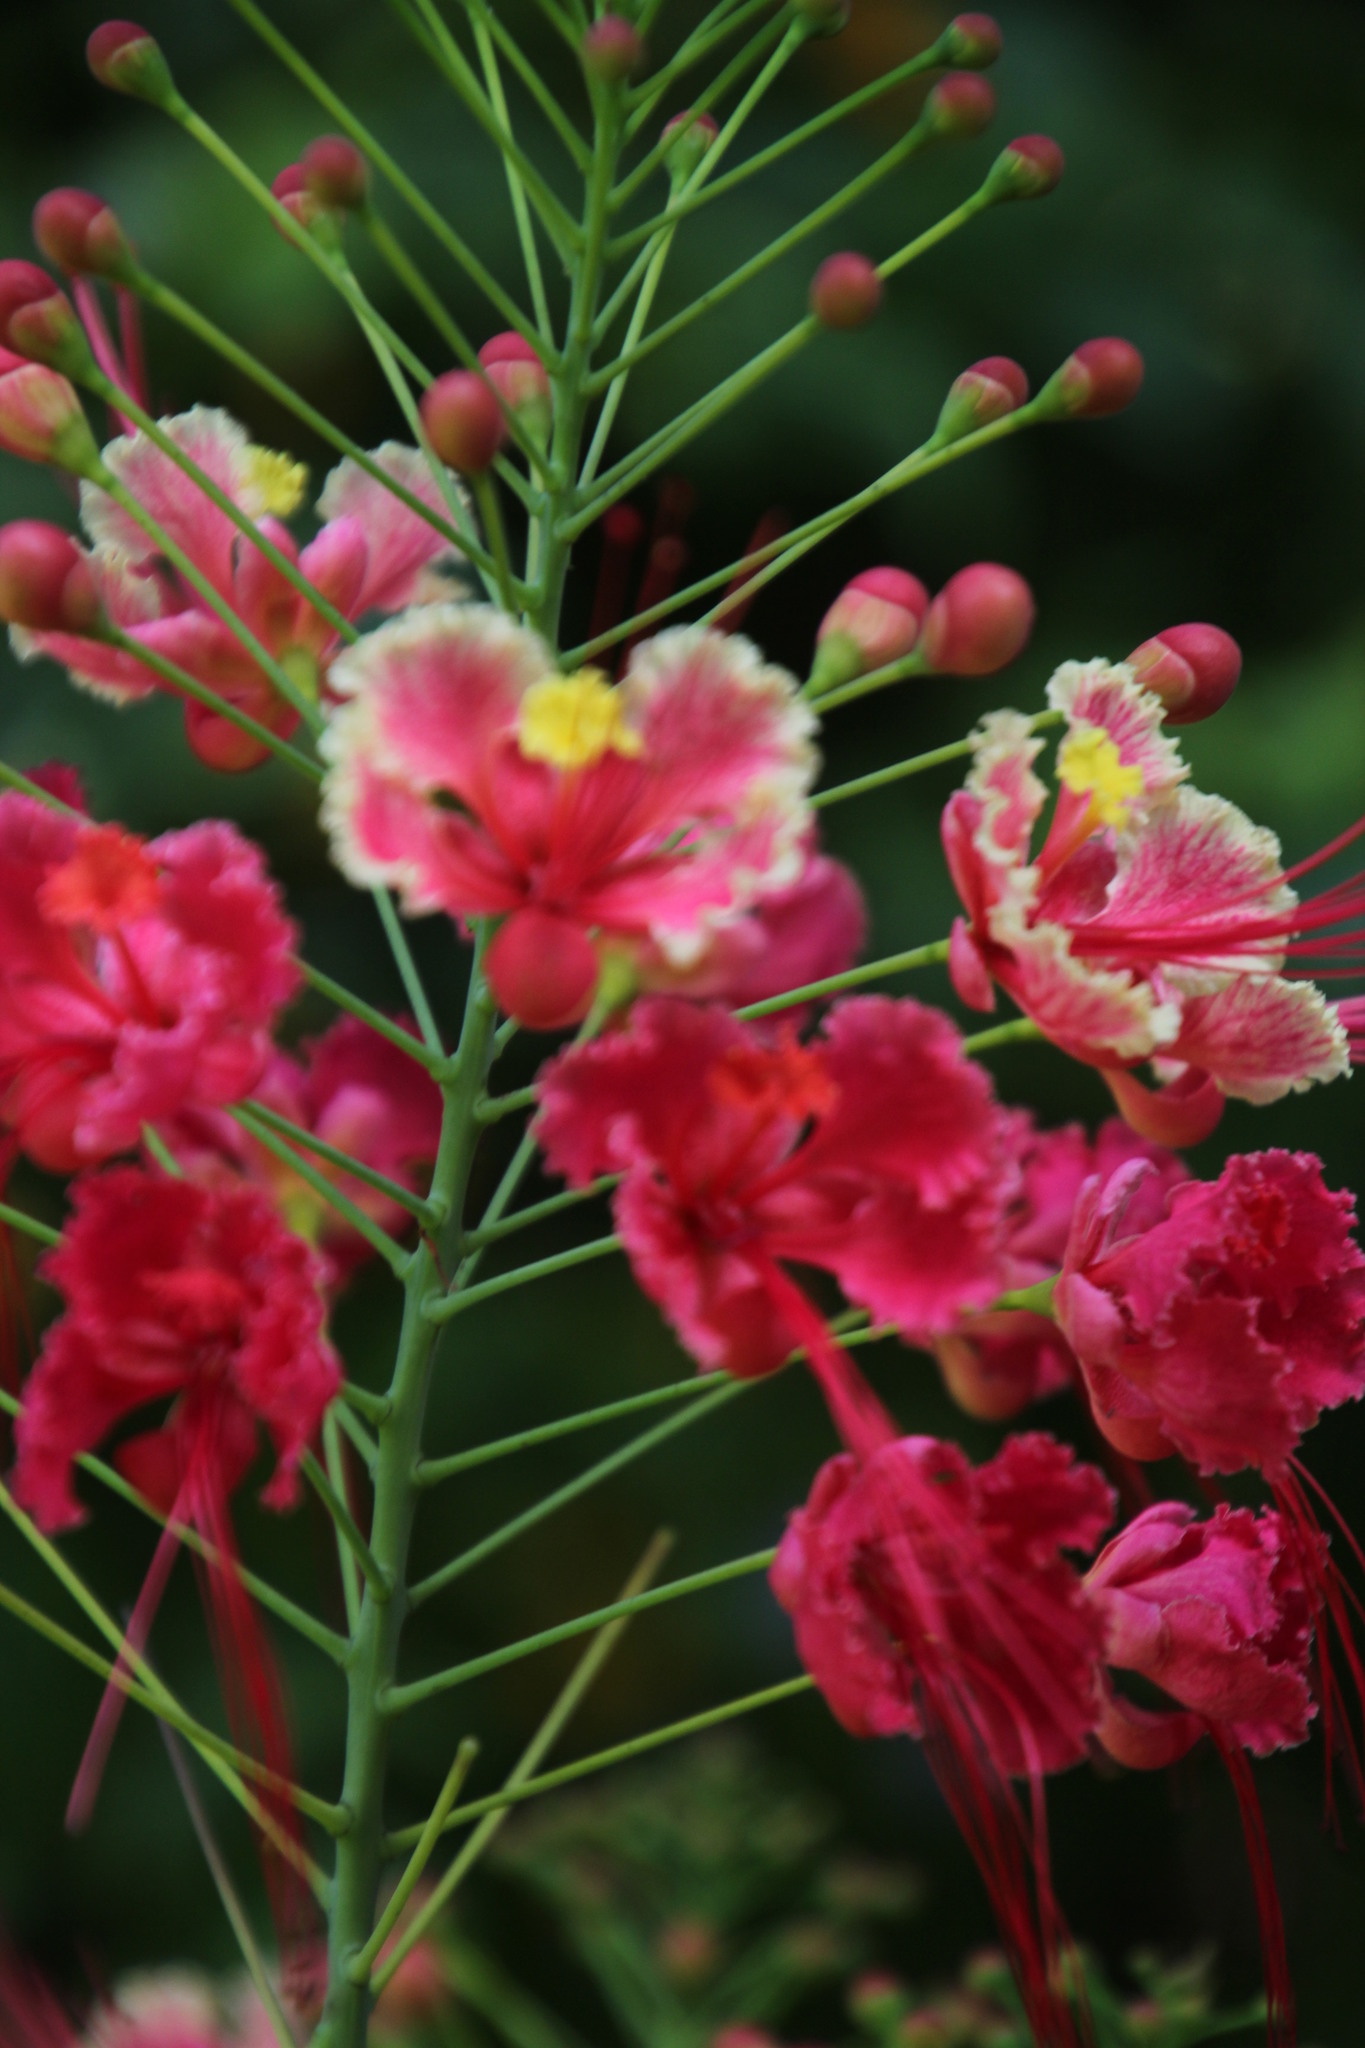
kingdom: Plantae
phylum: Tracheophyta
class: Magnoliopsida
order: Fabales
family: Fabaceae
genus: Caesalpinia
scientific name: Caesalpinia pulcherrima
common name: Pride-of-barbados
